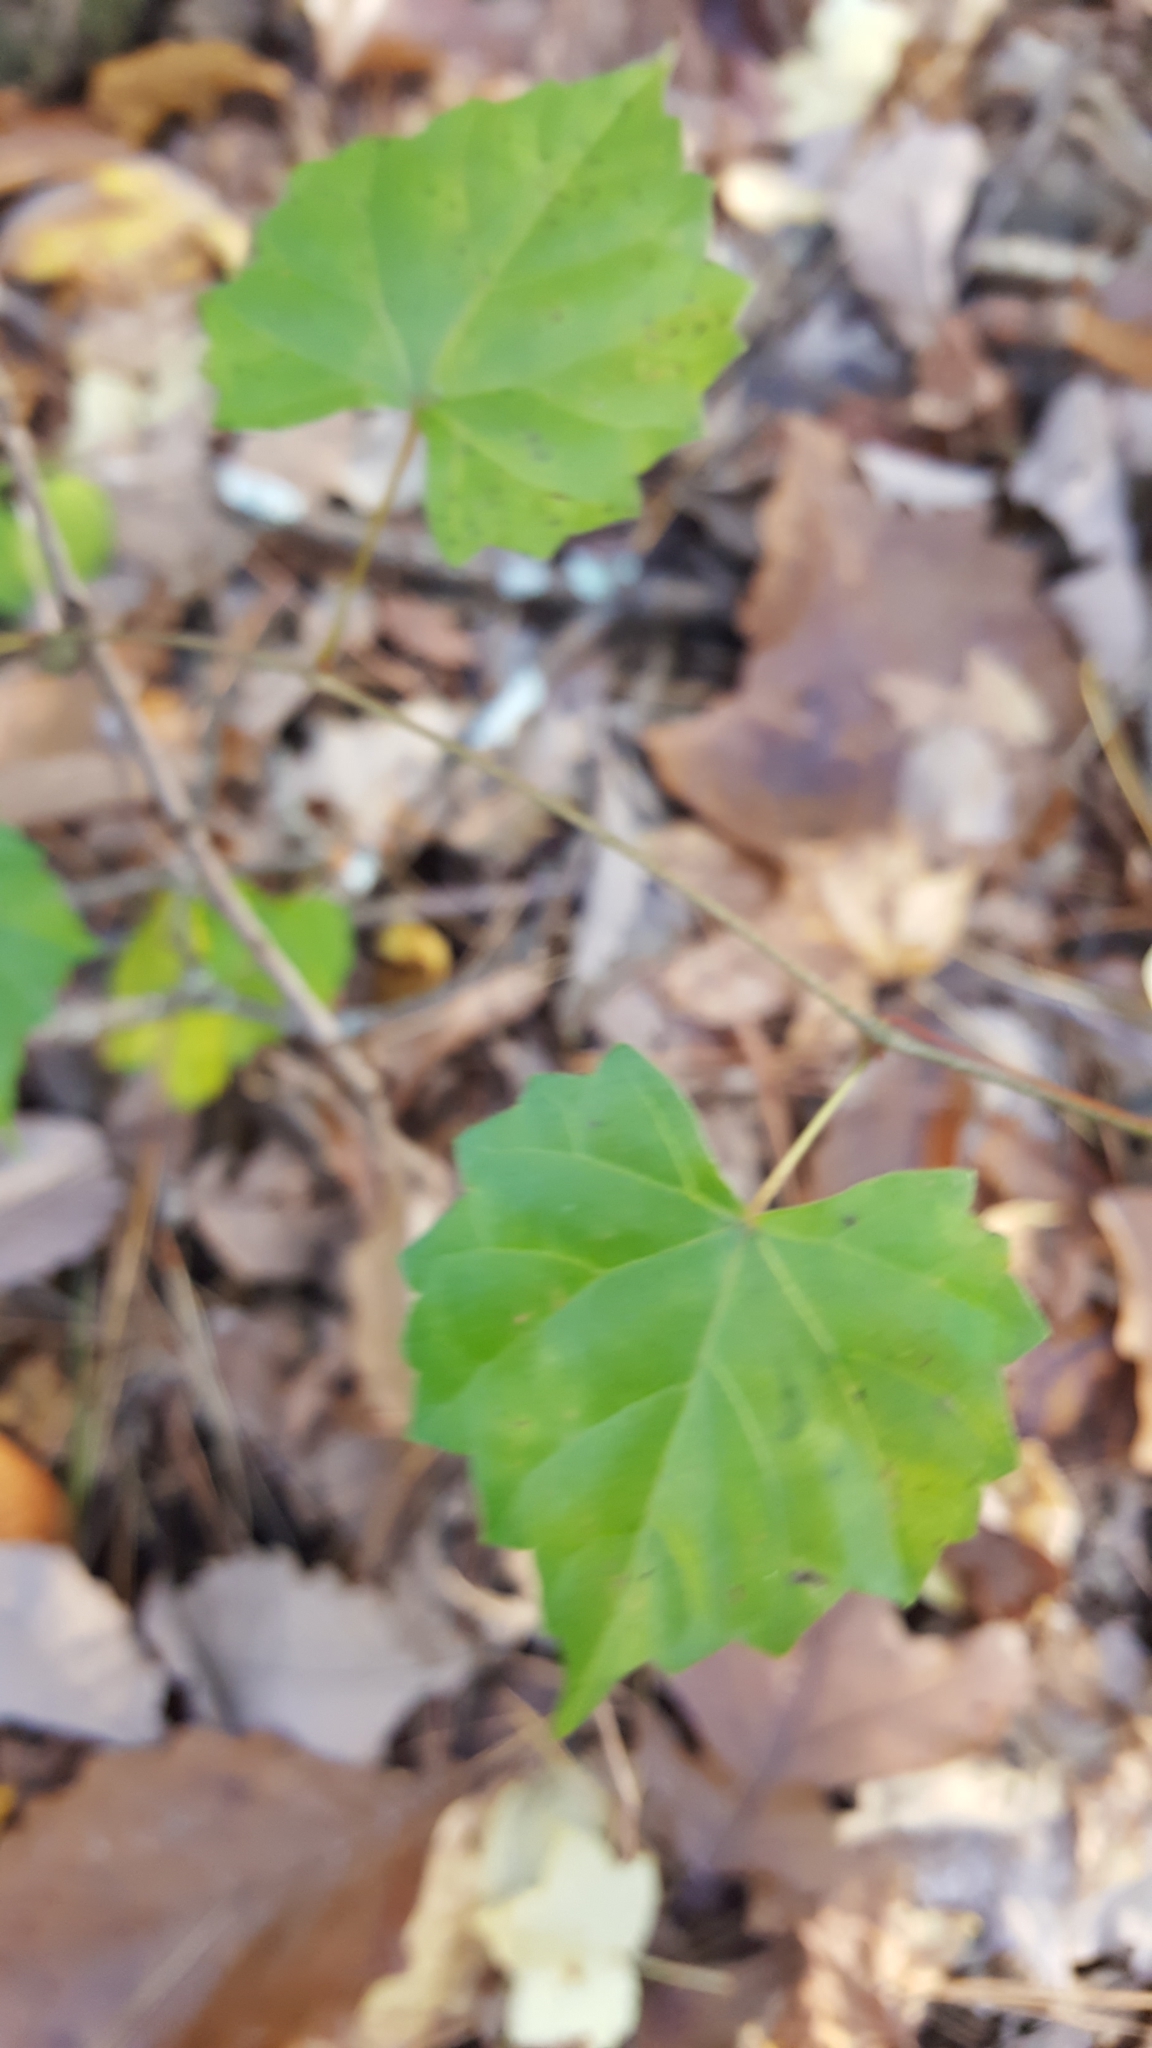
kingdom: Plantae
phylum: Tracheophyta
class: Magnoliopsida
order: Vitales
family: Vitaceae
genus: Vitis
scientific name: Vitis rotundifolia
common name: Muscadine grape
